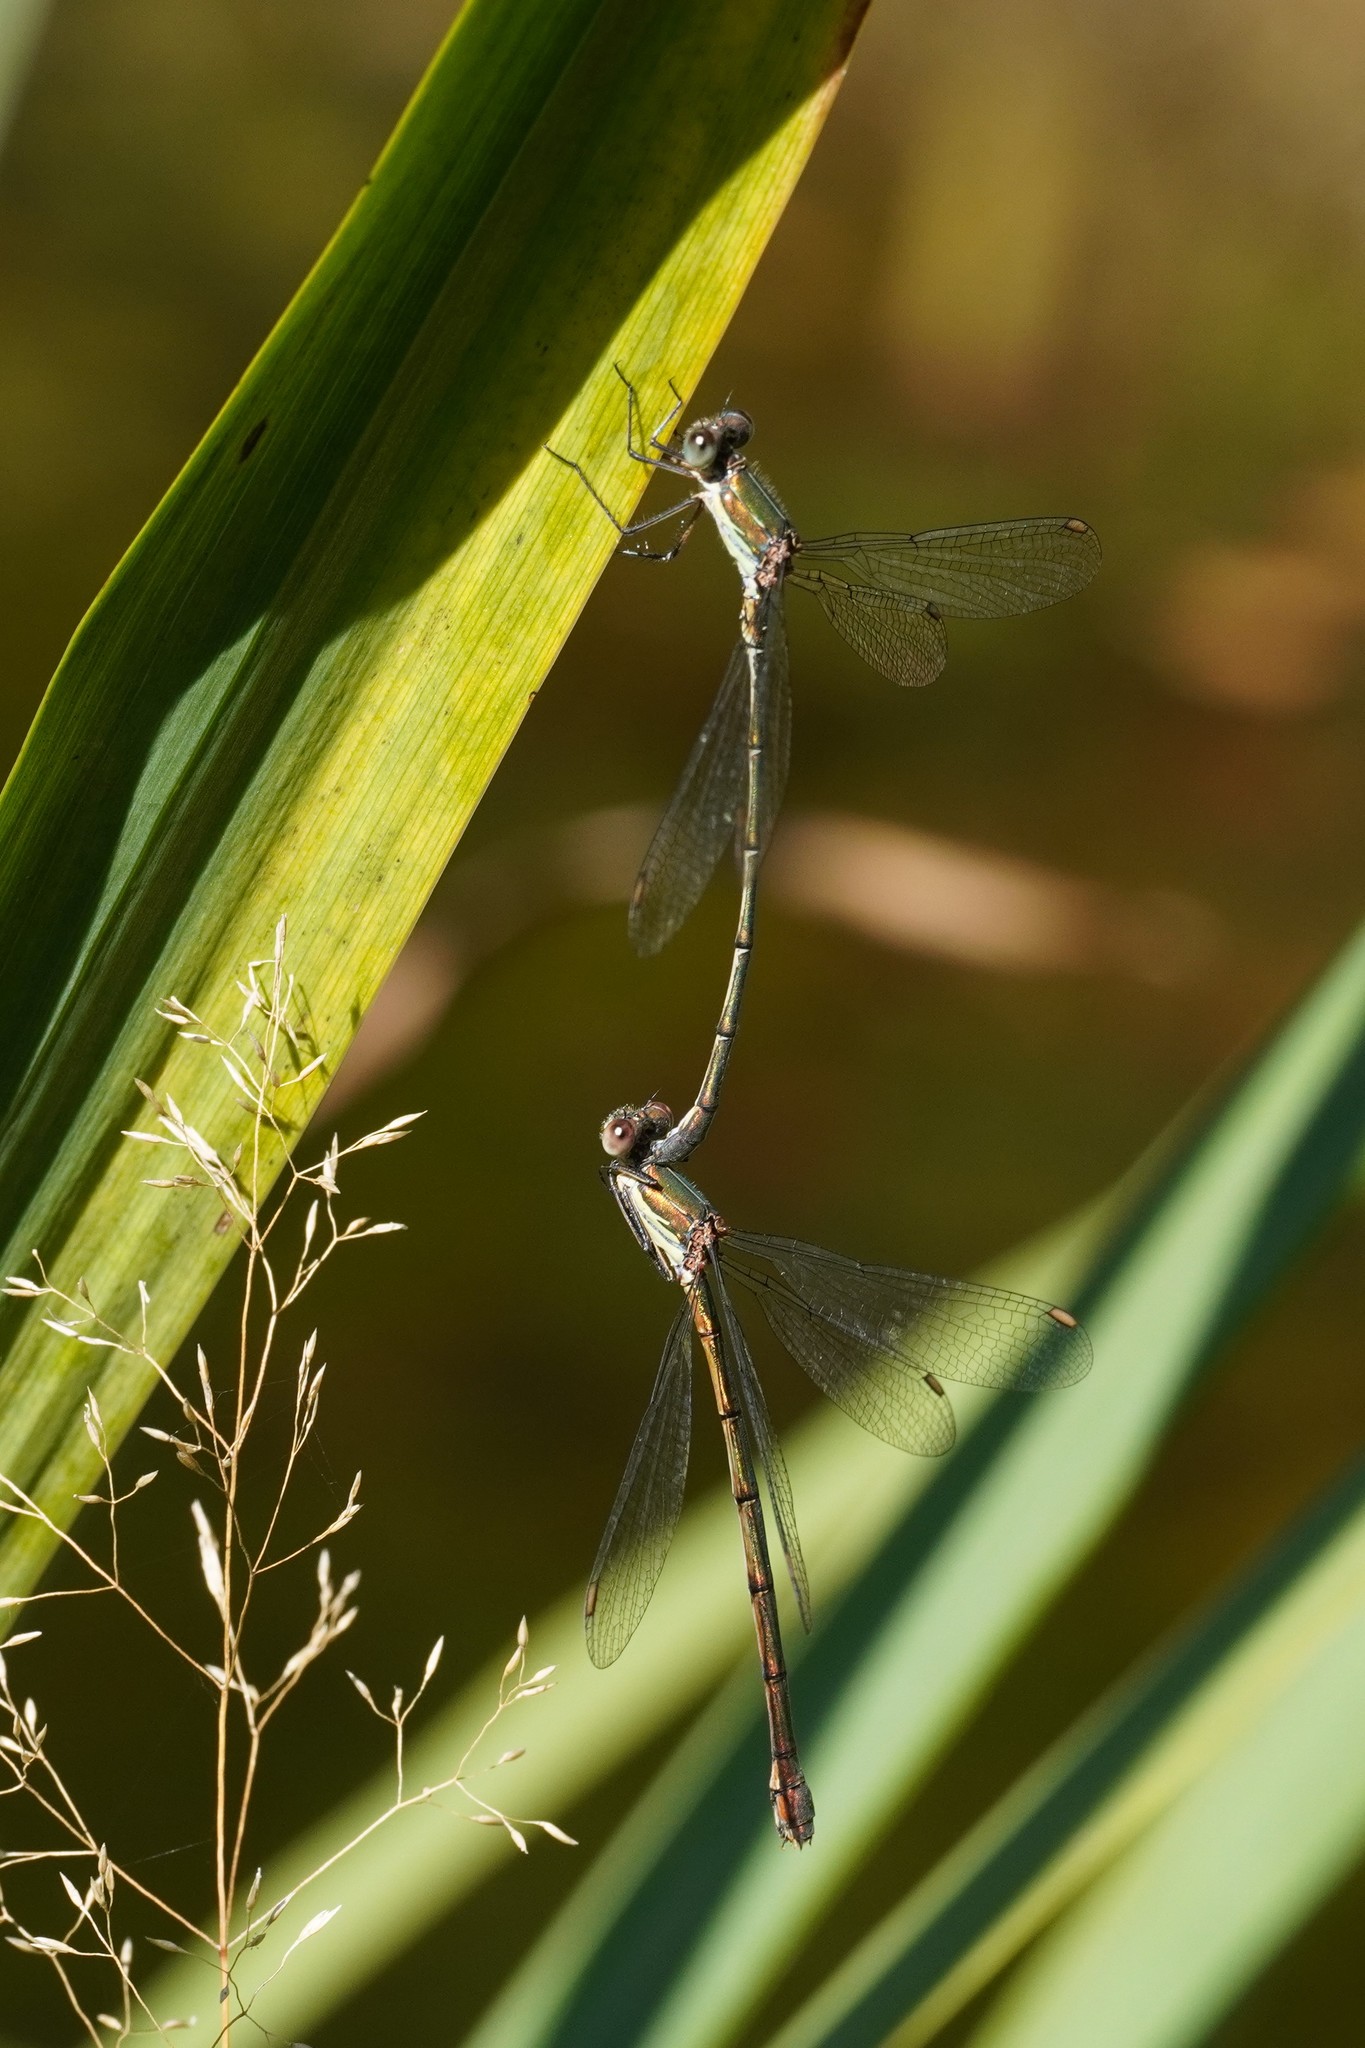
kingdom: Animalia
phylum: Arthropoda
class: Insecta
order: Odonata
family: Lestidae
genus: Chalcolestes
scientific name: Chalcolestes viridis
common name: Green emerald damselfly
